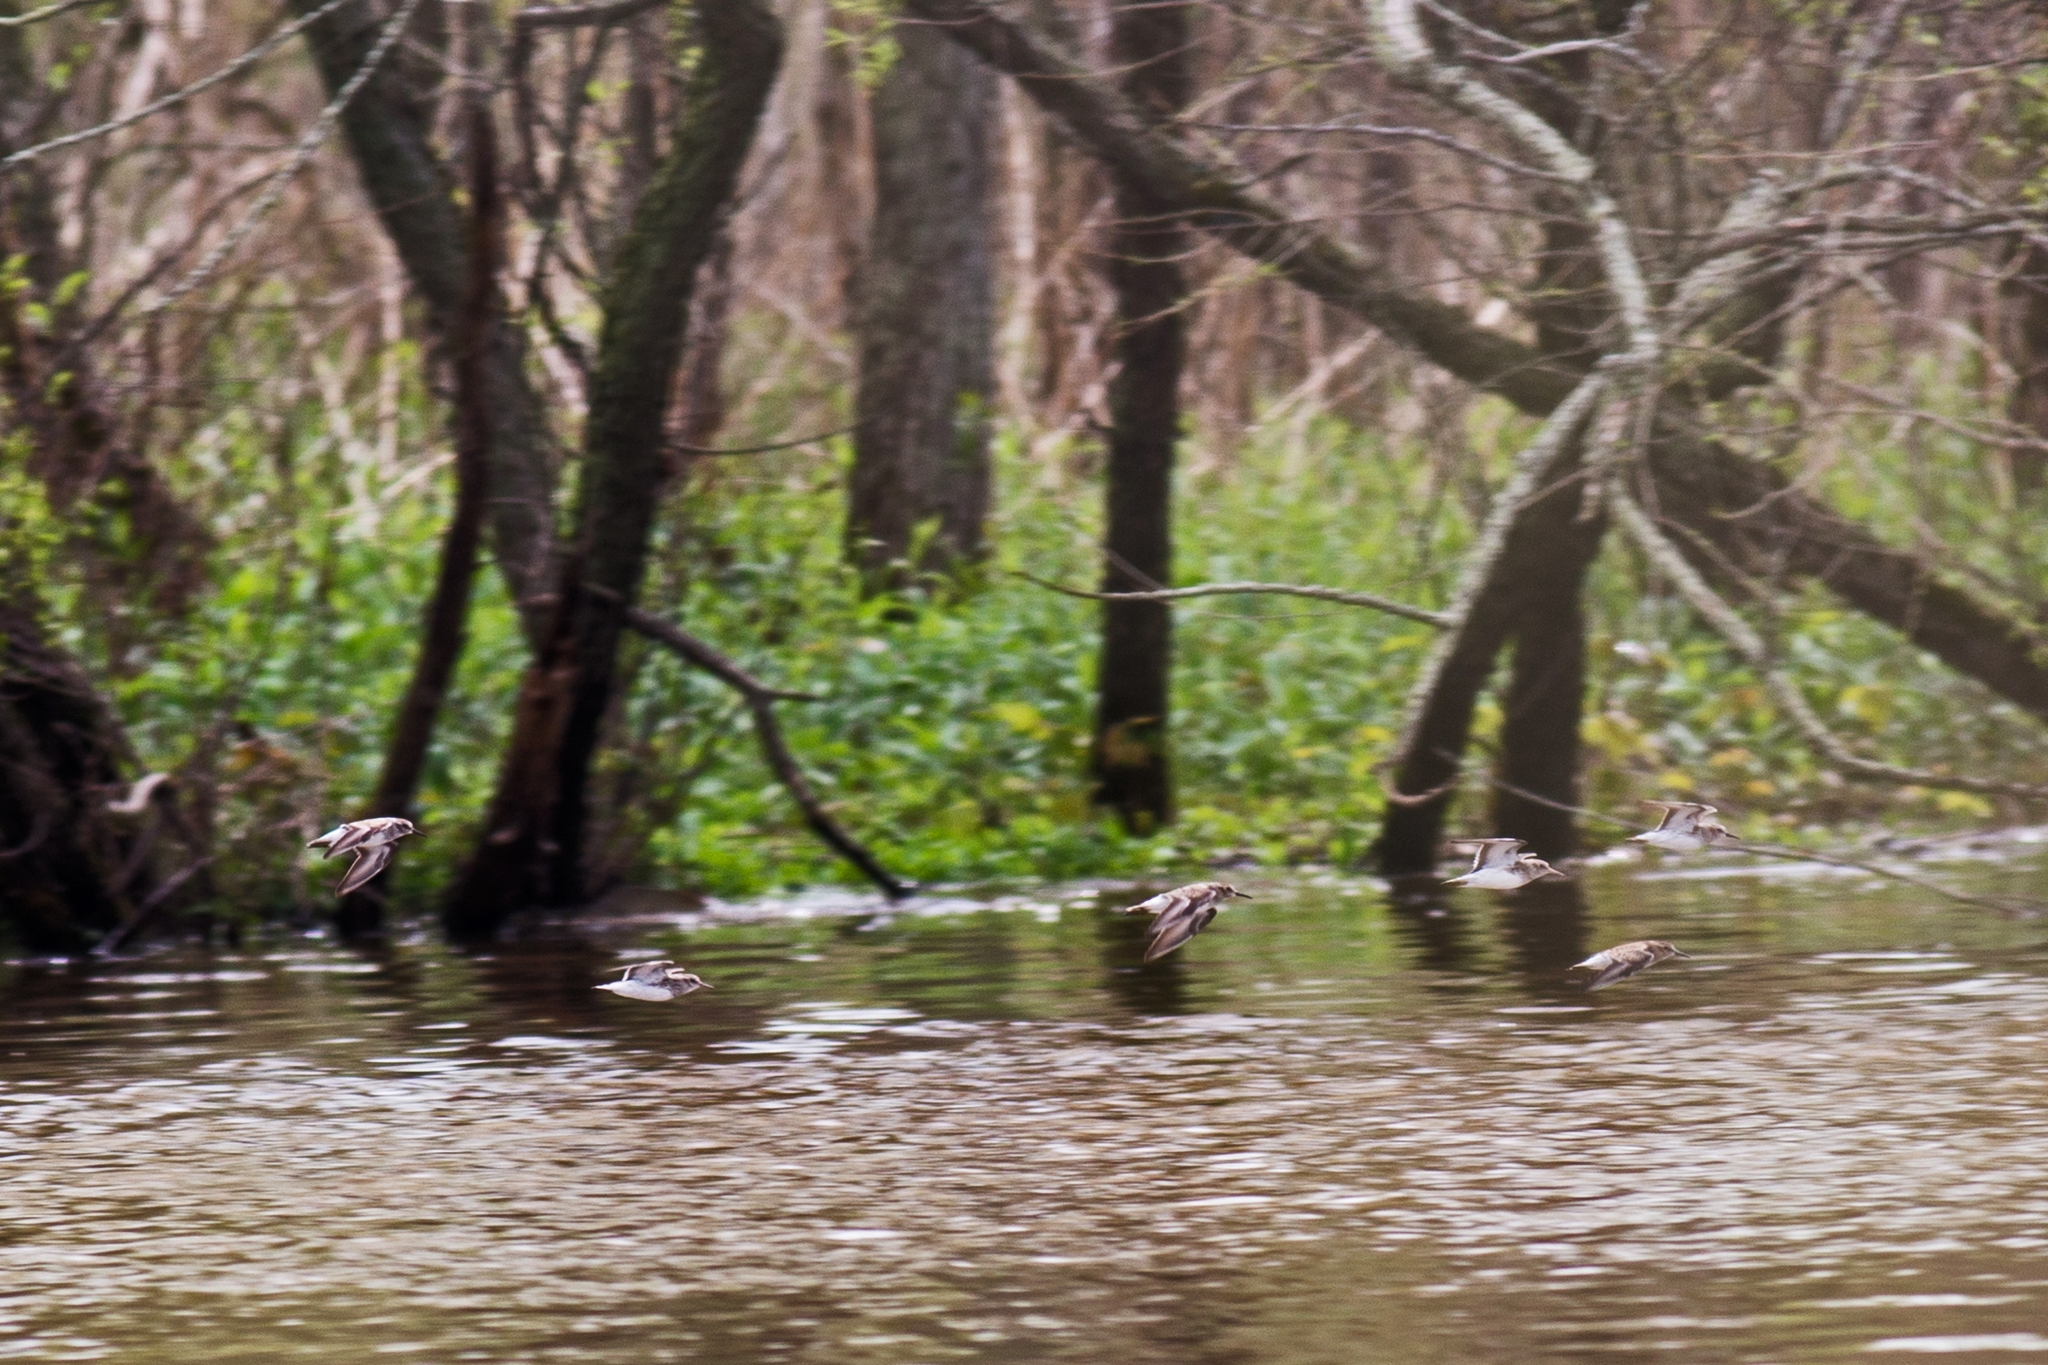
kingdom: Animalia
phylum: Chordata
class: Aves
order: Charadriiformes
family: Scolopacidae
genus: Calidris
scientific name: Calidris minutilla
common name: Least sandpiper
